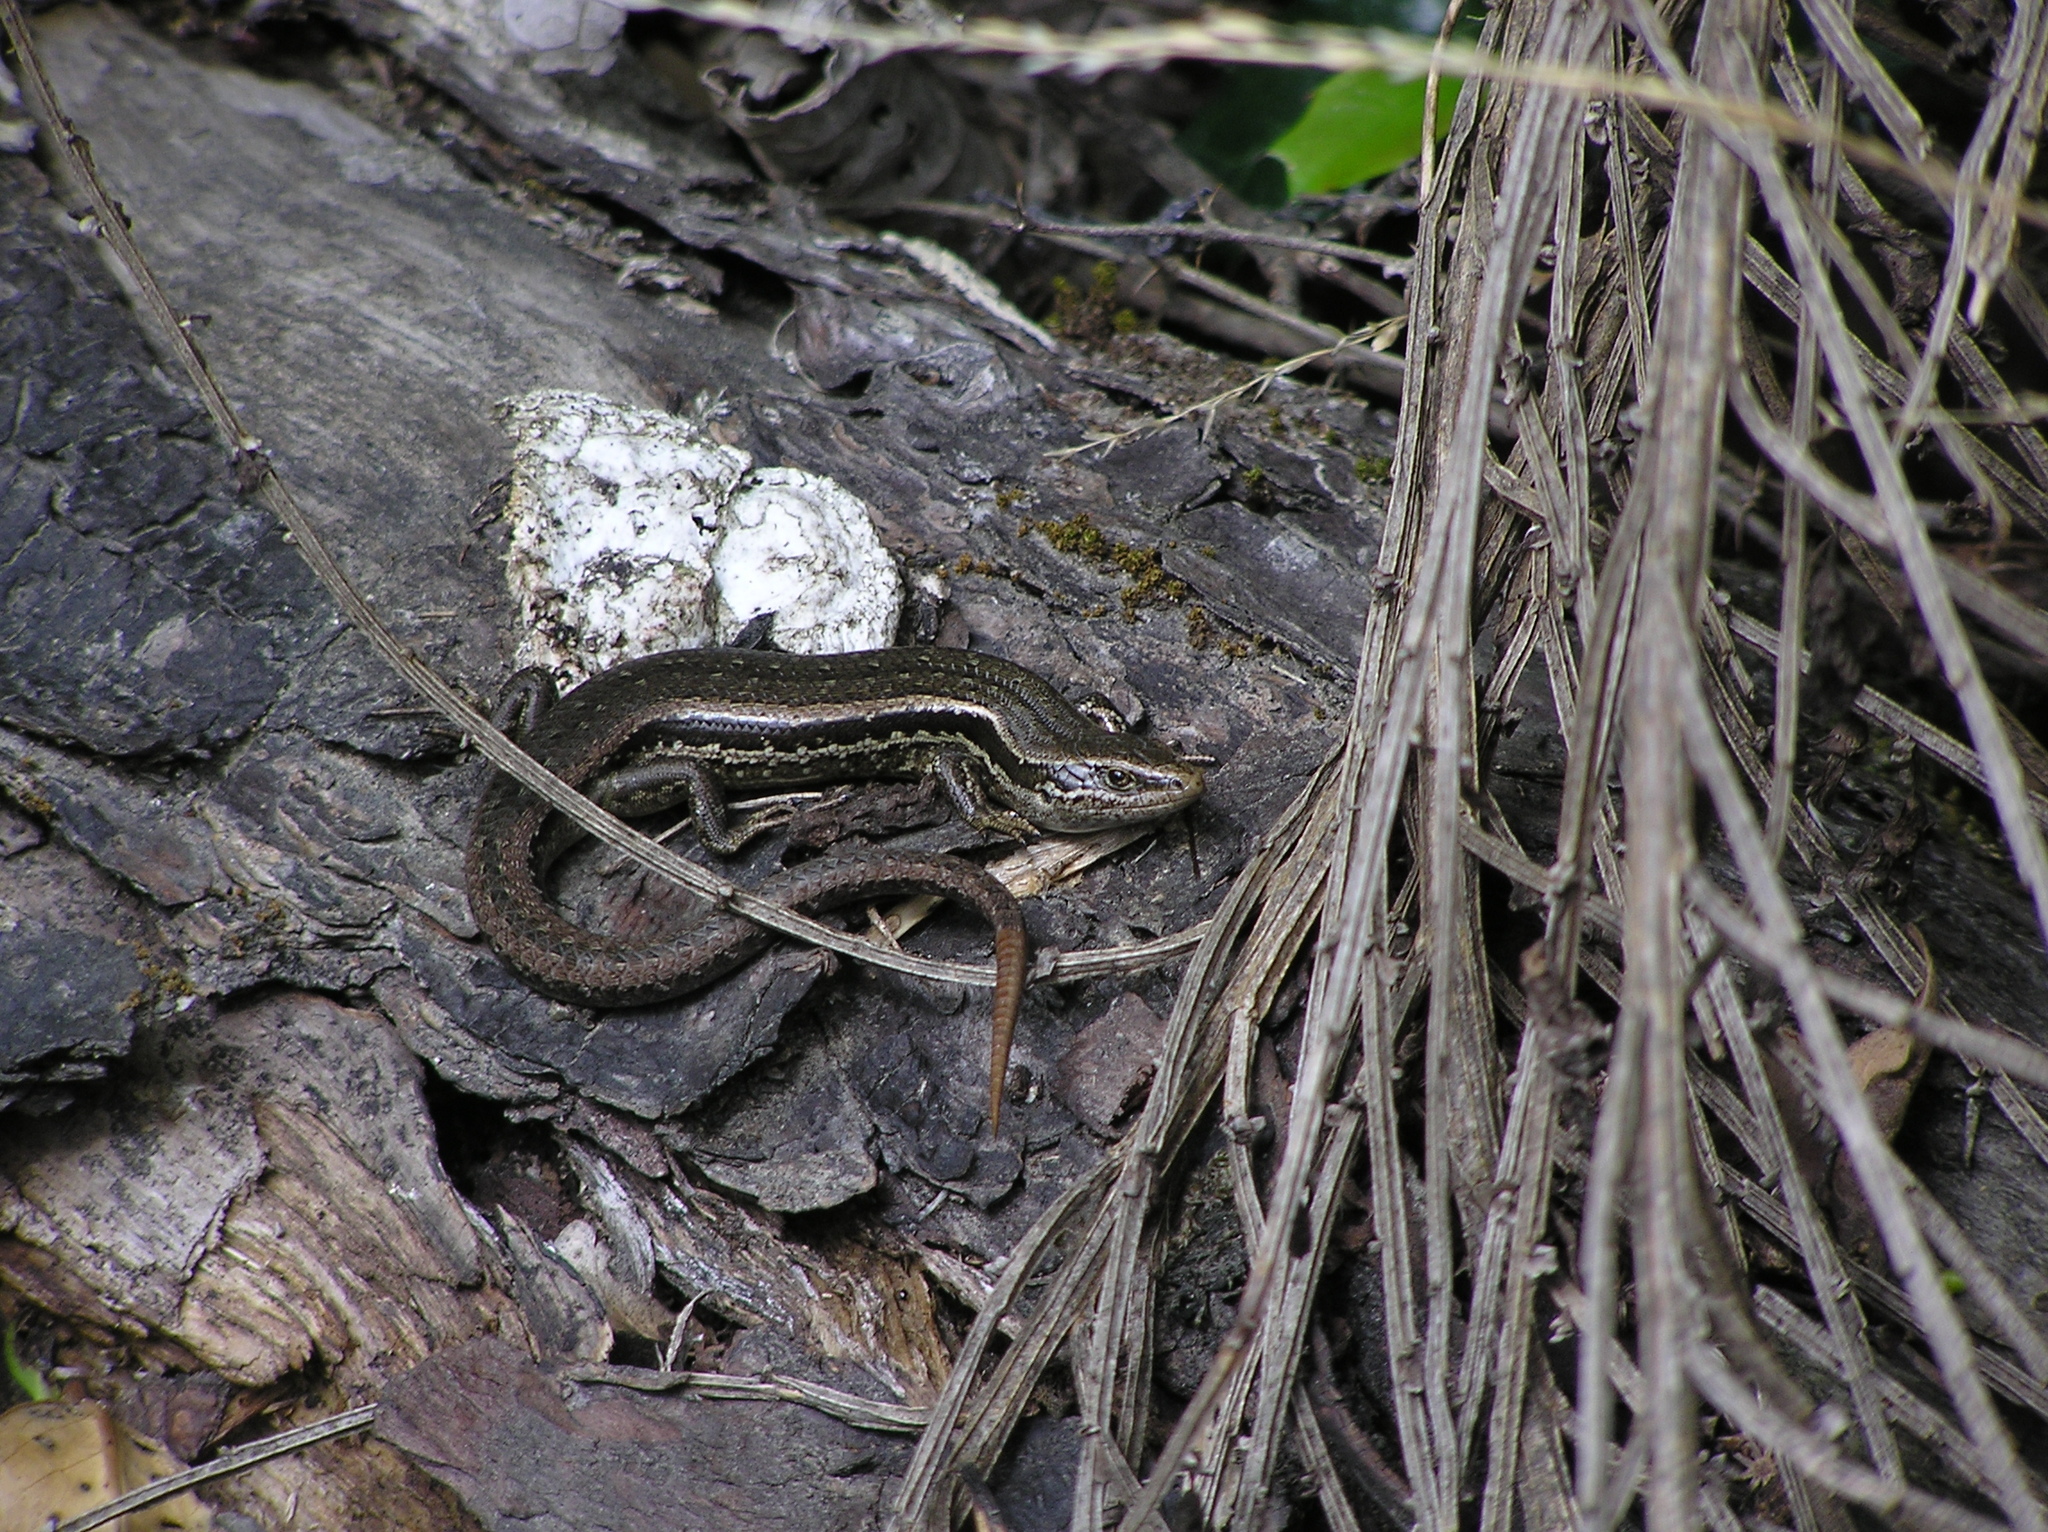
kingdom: Animalia
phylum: Chordata
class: Squamata
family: Scincidae
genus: Oligosoma
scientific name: Oligosoma polychroma
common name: Common new zealand skink
